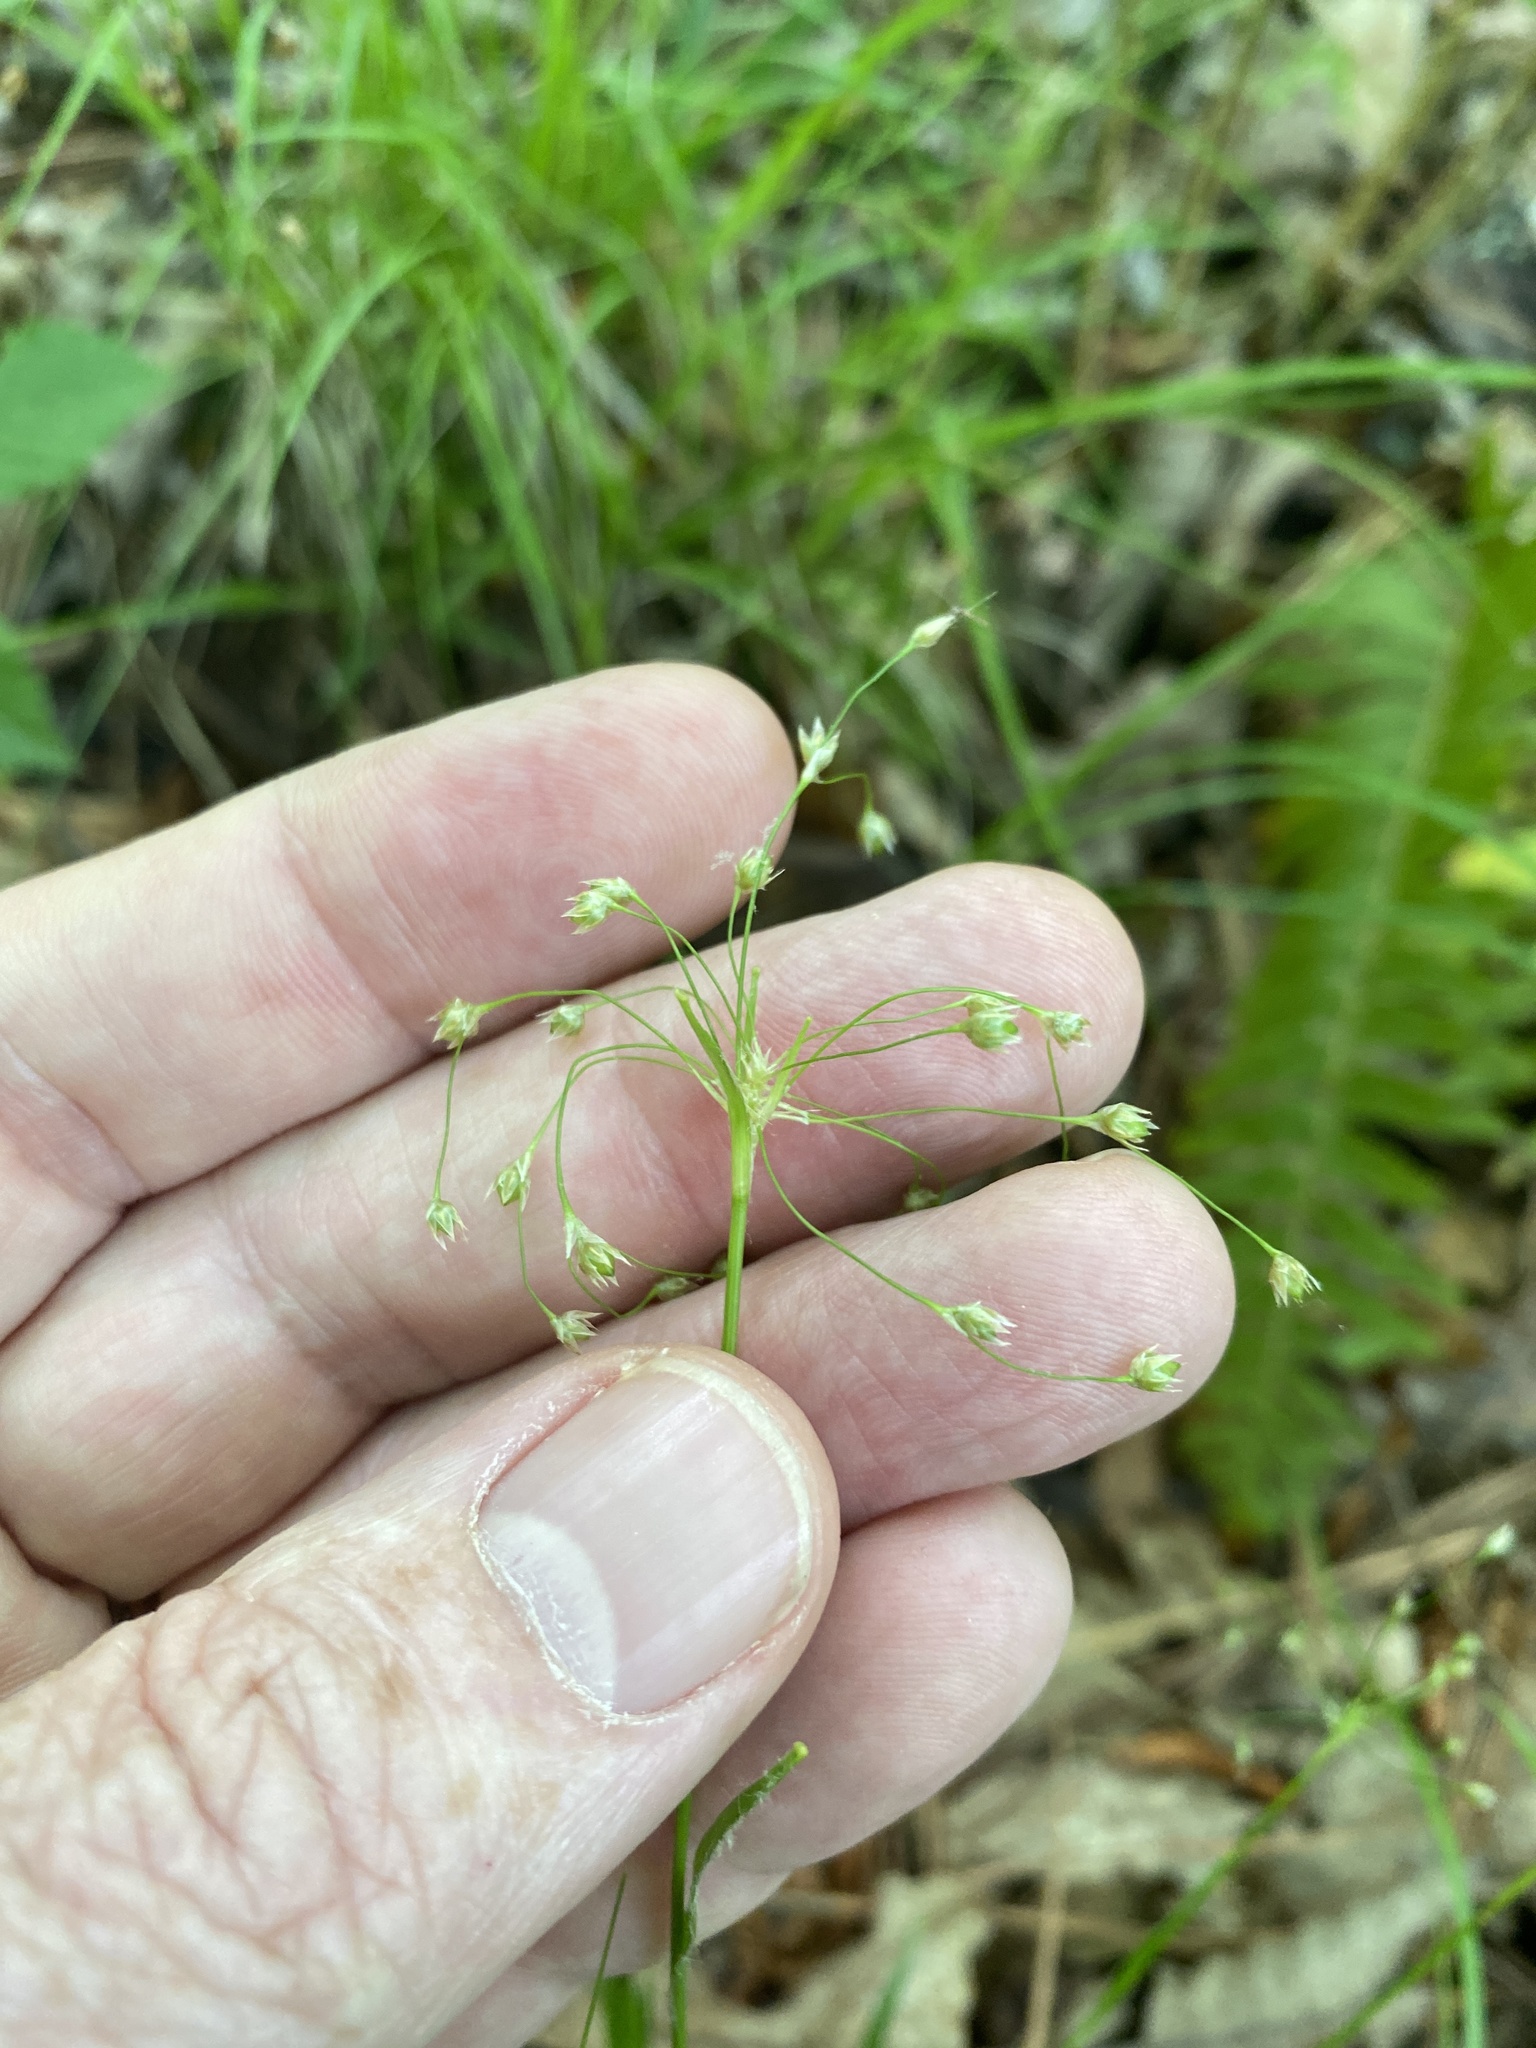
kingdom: Plantae
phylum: Tracheophyta
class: Liliopsida
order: Poales
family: Juncaceae
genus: Luzula
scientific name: Luzula acuminata
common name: Hairy woodrush
